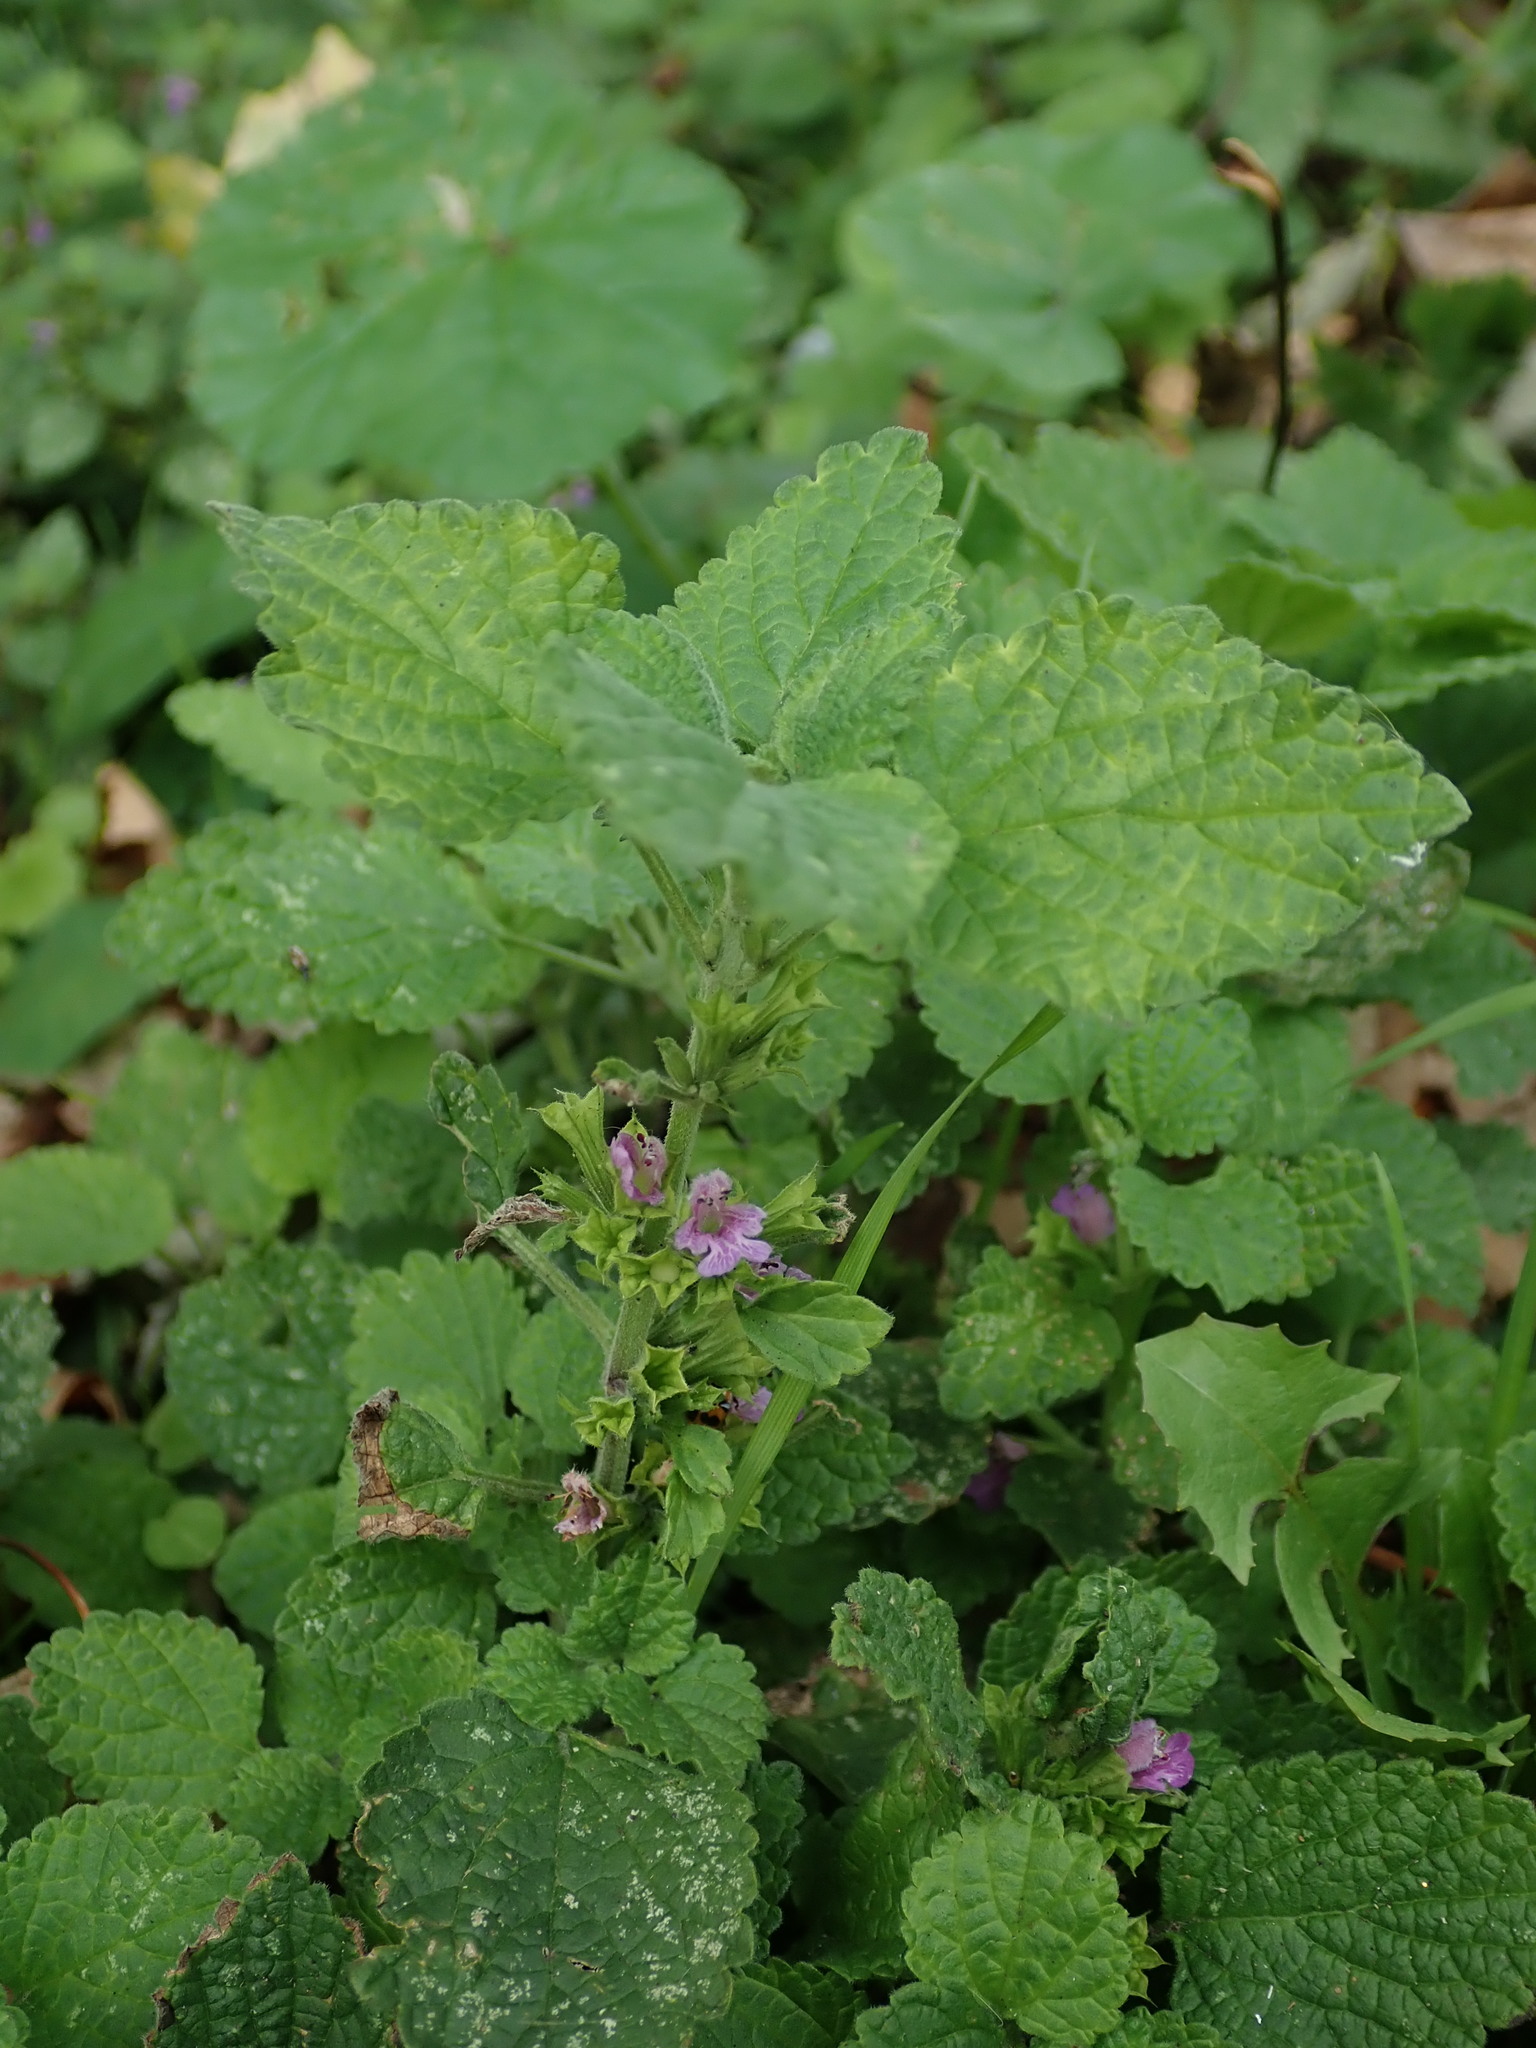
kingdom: Plantae
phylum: Tracheophyta
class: Magnoliopsida
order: Lamiales
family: Lamiaceae
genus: Ballota
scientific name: Ballota nigra
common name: Black horehound
